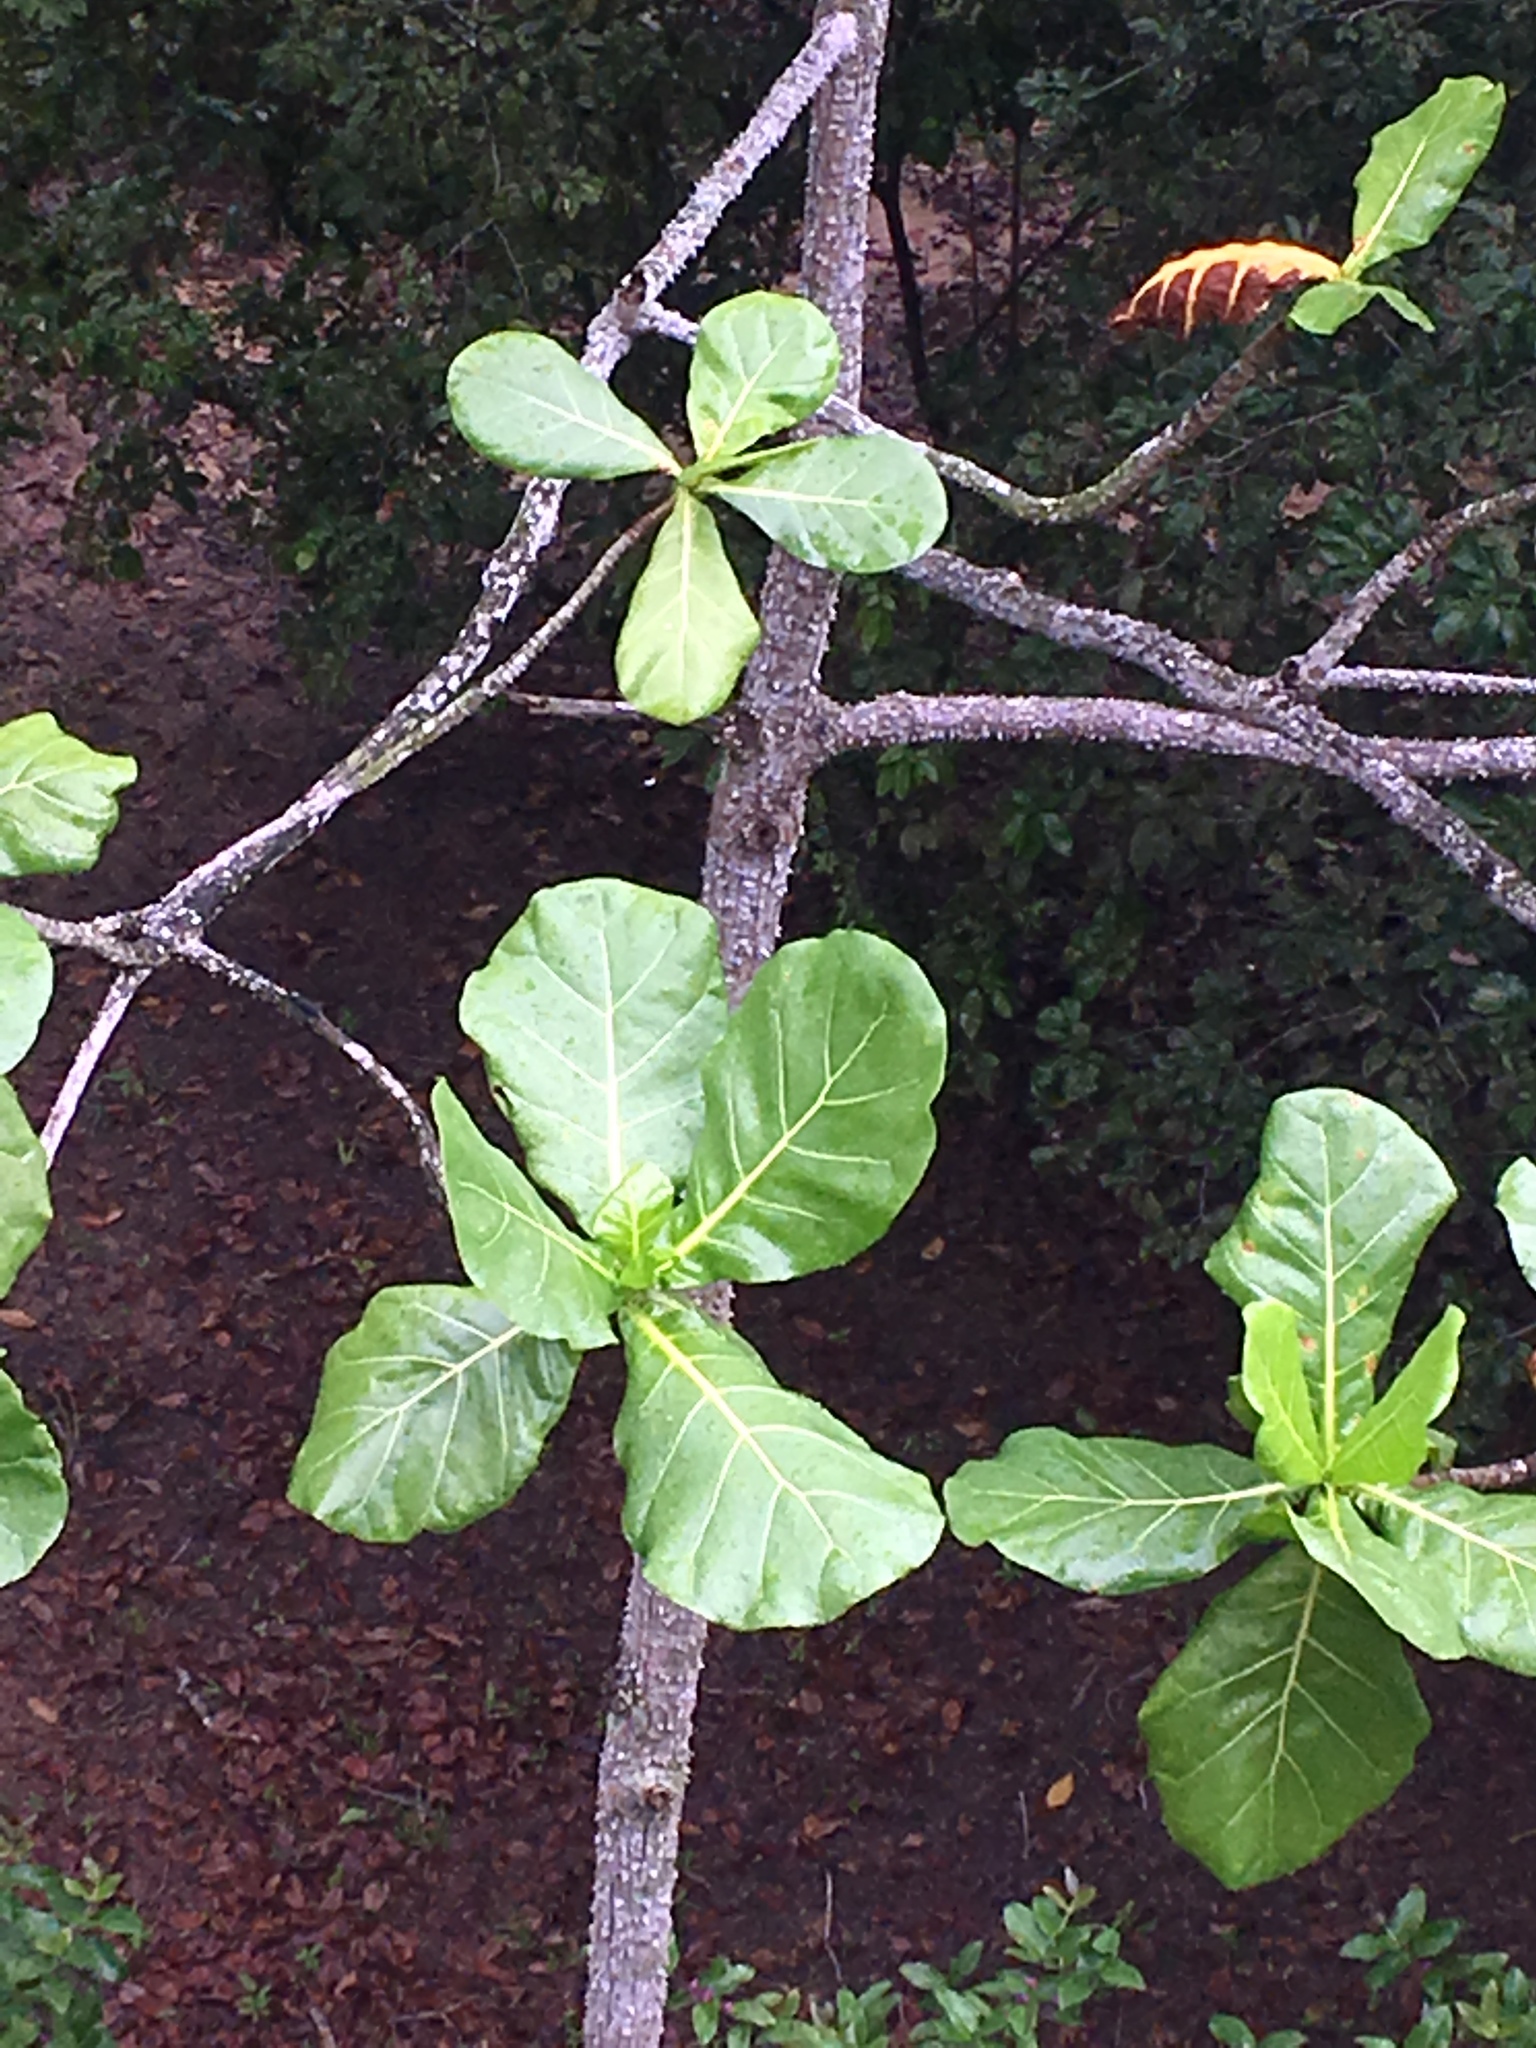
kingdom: Plantae
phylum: Tracheophyta
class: Magnoliopsida
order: Myrtales
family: Combretaceae
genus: Terminalia
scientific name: Terminalia catappa
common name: Tropical almond
